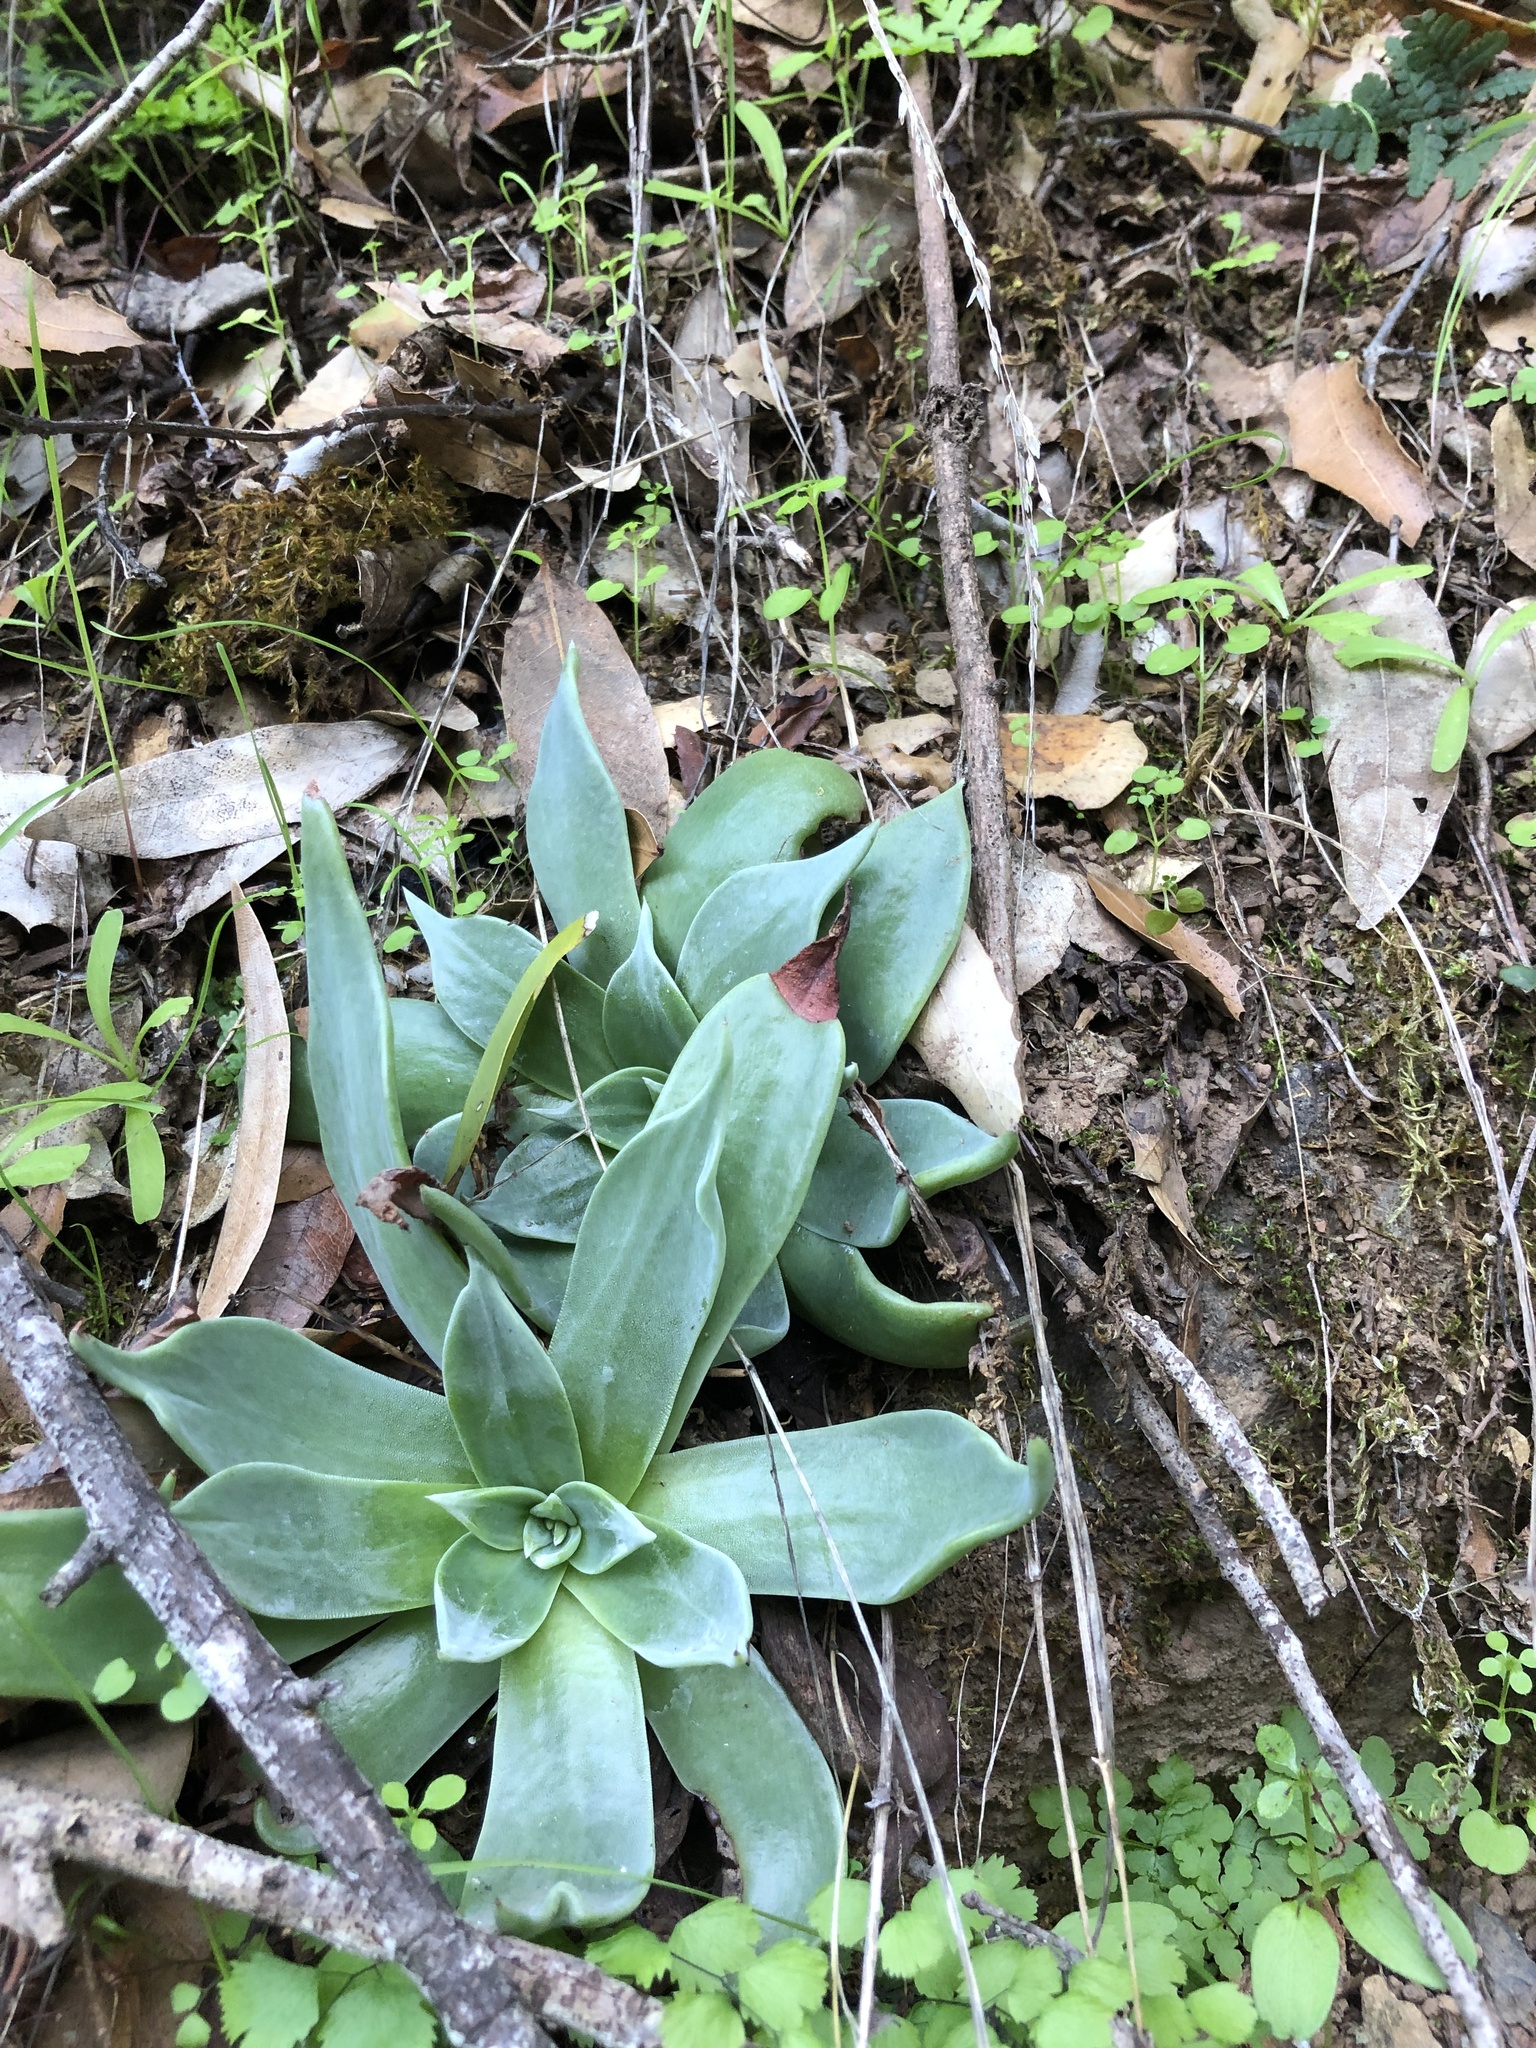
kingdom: Plantae
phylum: Tracheophyta
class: Magnoliopsida
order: Saxifragales
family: Crassulaceae
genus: Dudleya
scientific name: Dudleya cymosa
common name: Canyon dudleya
